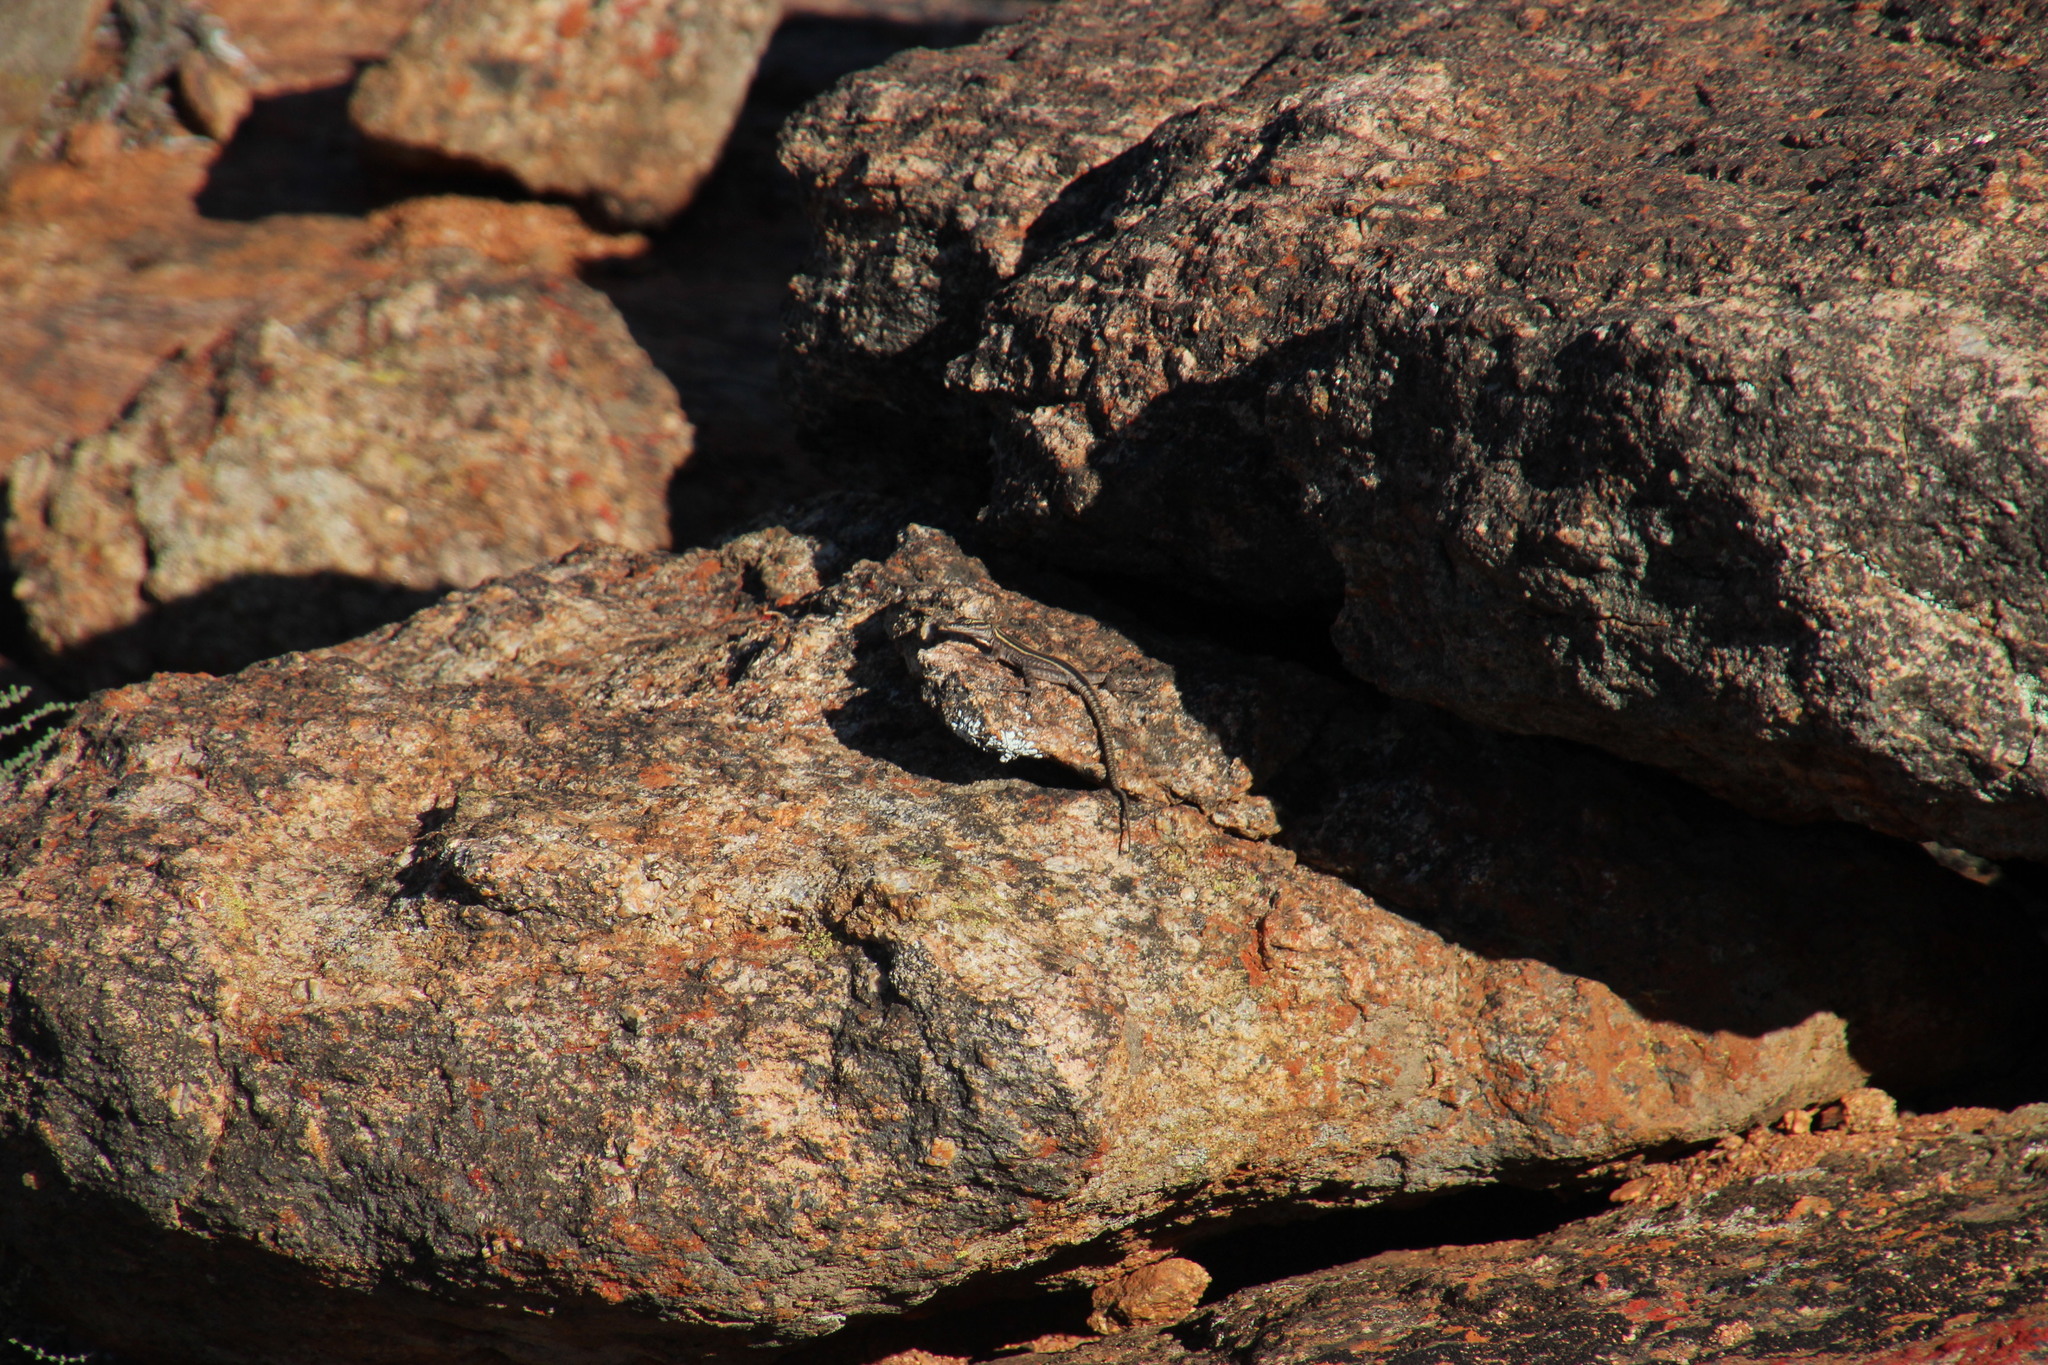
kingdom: Animalia
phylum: Chordata
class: Squamata
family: Cordylidae
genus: Platysaurus
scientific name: Platysaurus capensis
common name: Namaqua flat lizard
